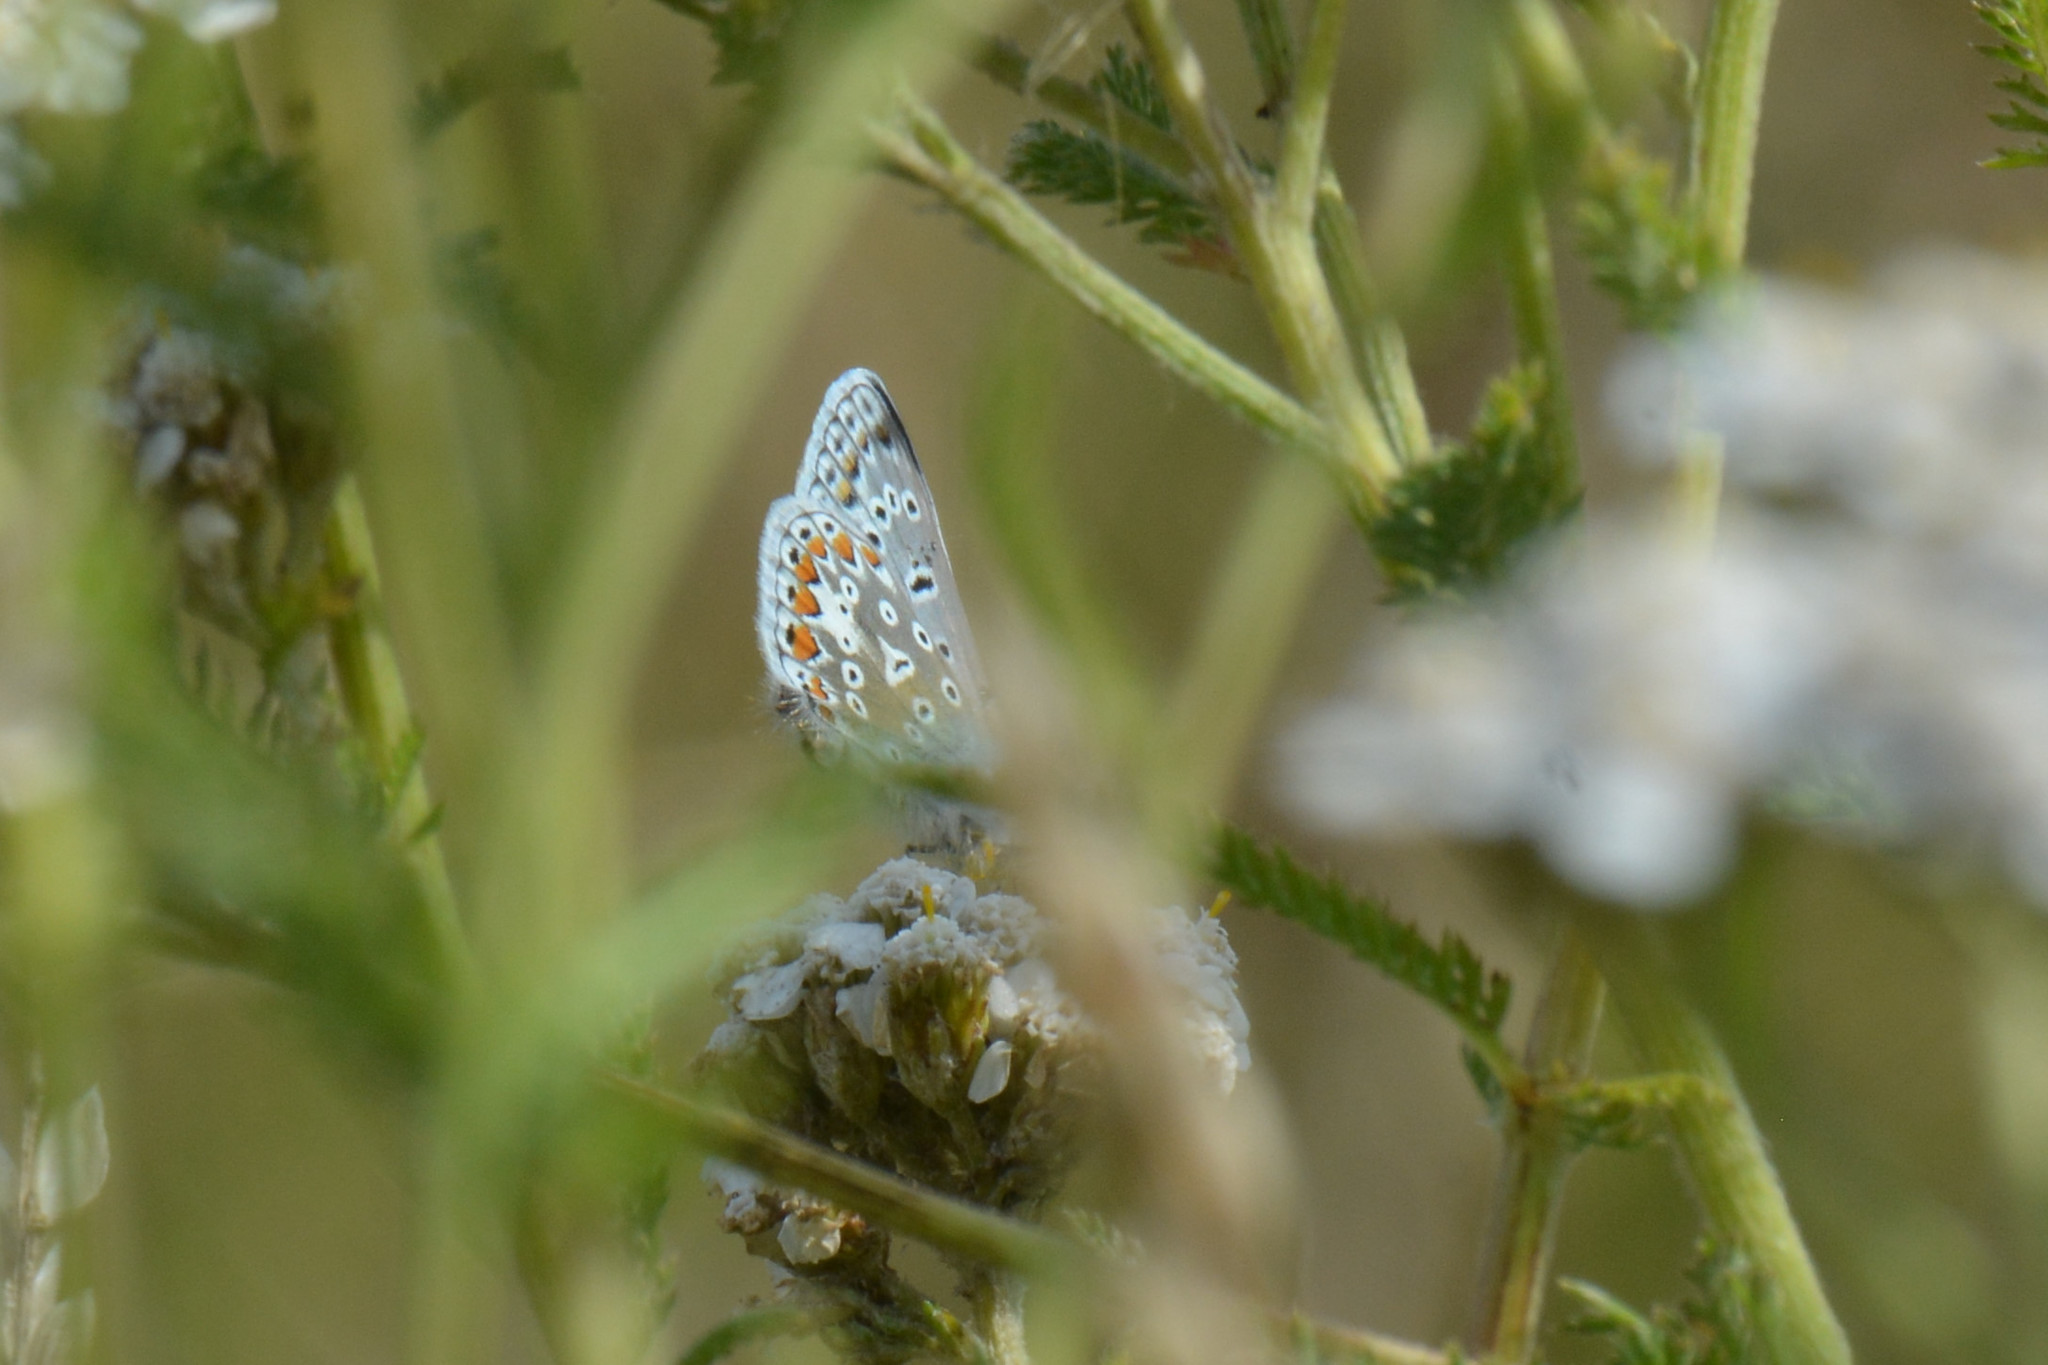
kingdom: Animalia
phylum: Arthropoda
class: Insecta
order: Lepidoptera
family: Lycaenidae
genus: Polyommatus
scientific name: Polyommatus icarus
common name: Common blue
